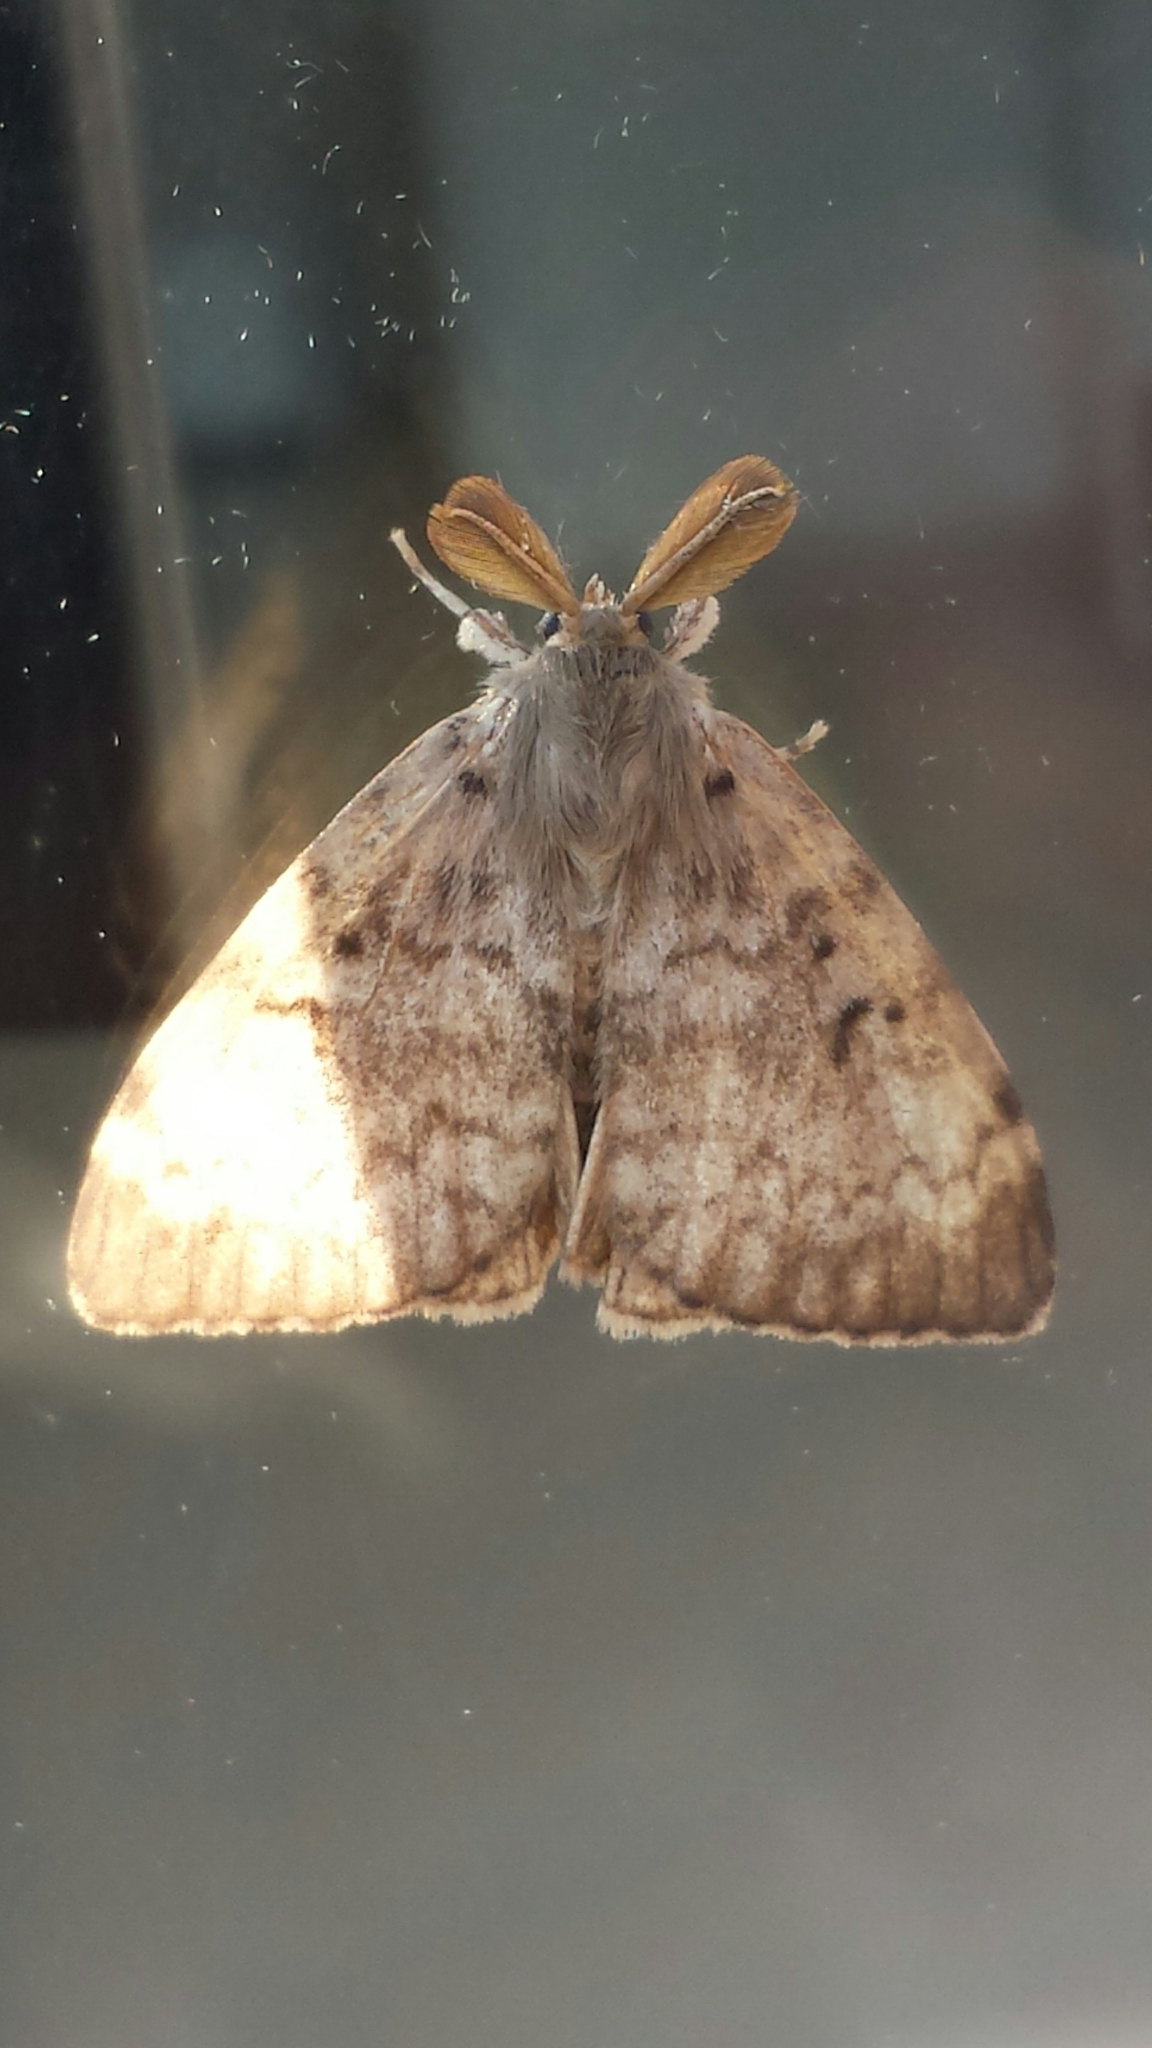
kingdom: Animalia
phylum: Arthropoda
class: Insecta
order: Lepidoptera
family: Erebidae
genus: Lymantria
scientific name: Lymantria dispar
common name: Gypsy moth
